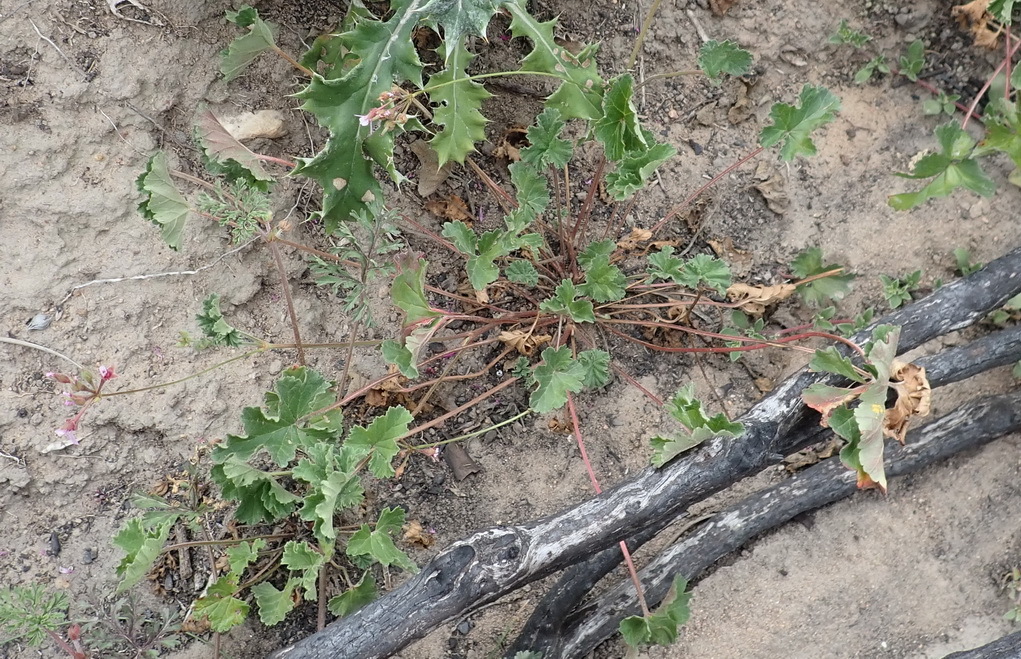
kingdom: Plantae
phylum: Tracheophyta
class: Magnoliopsida
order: Geraniales
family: Geraniaceae
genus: Pelargonium
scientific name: Pelargonium grossularioides
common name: Gooseberry geranium
